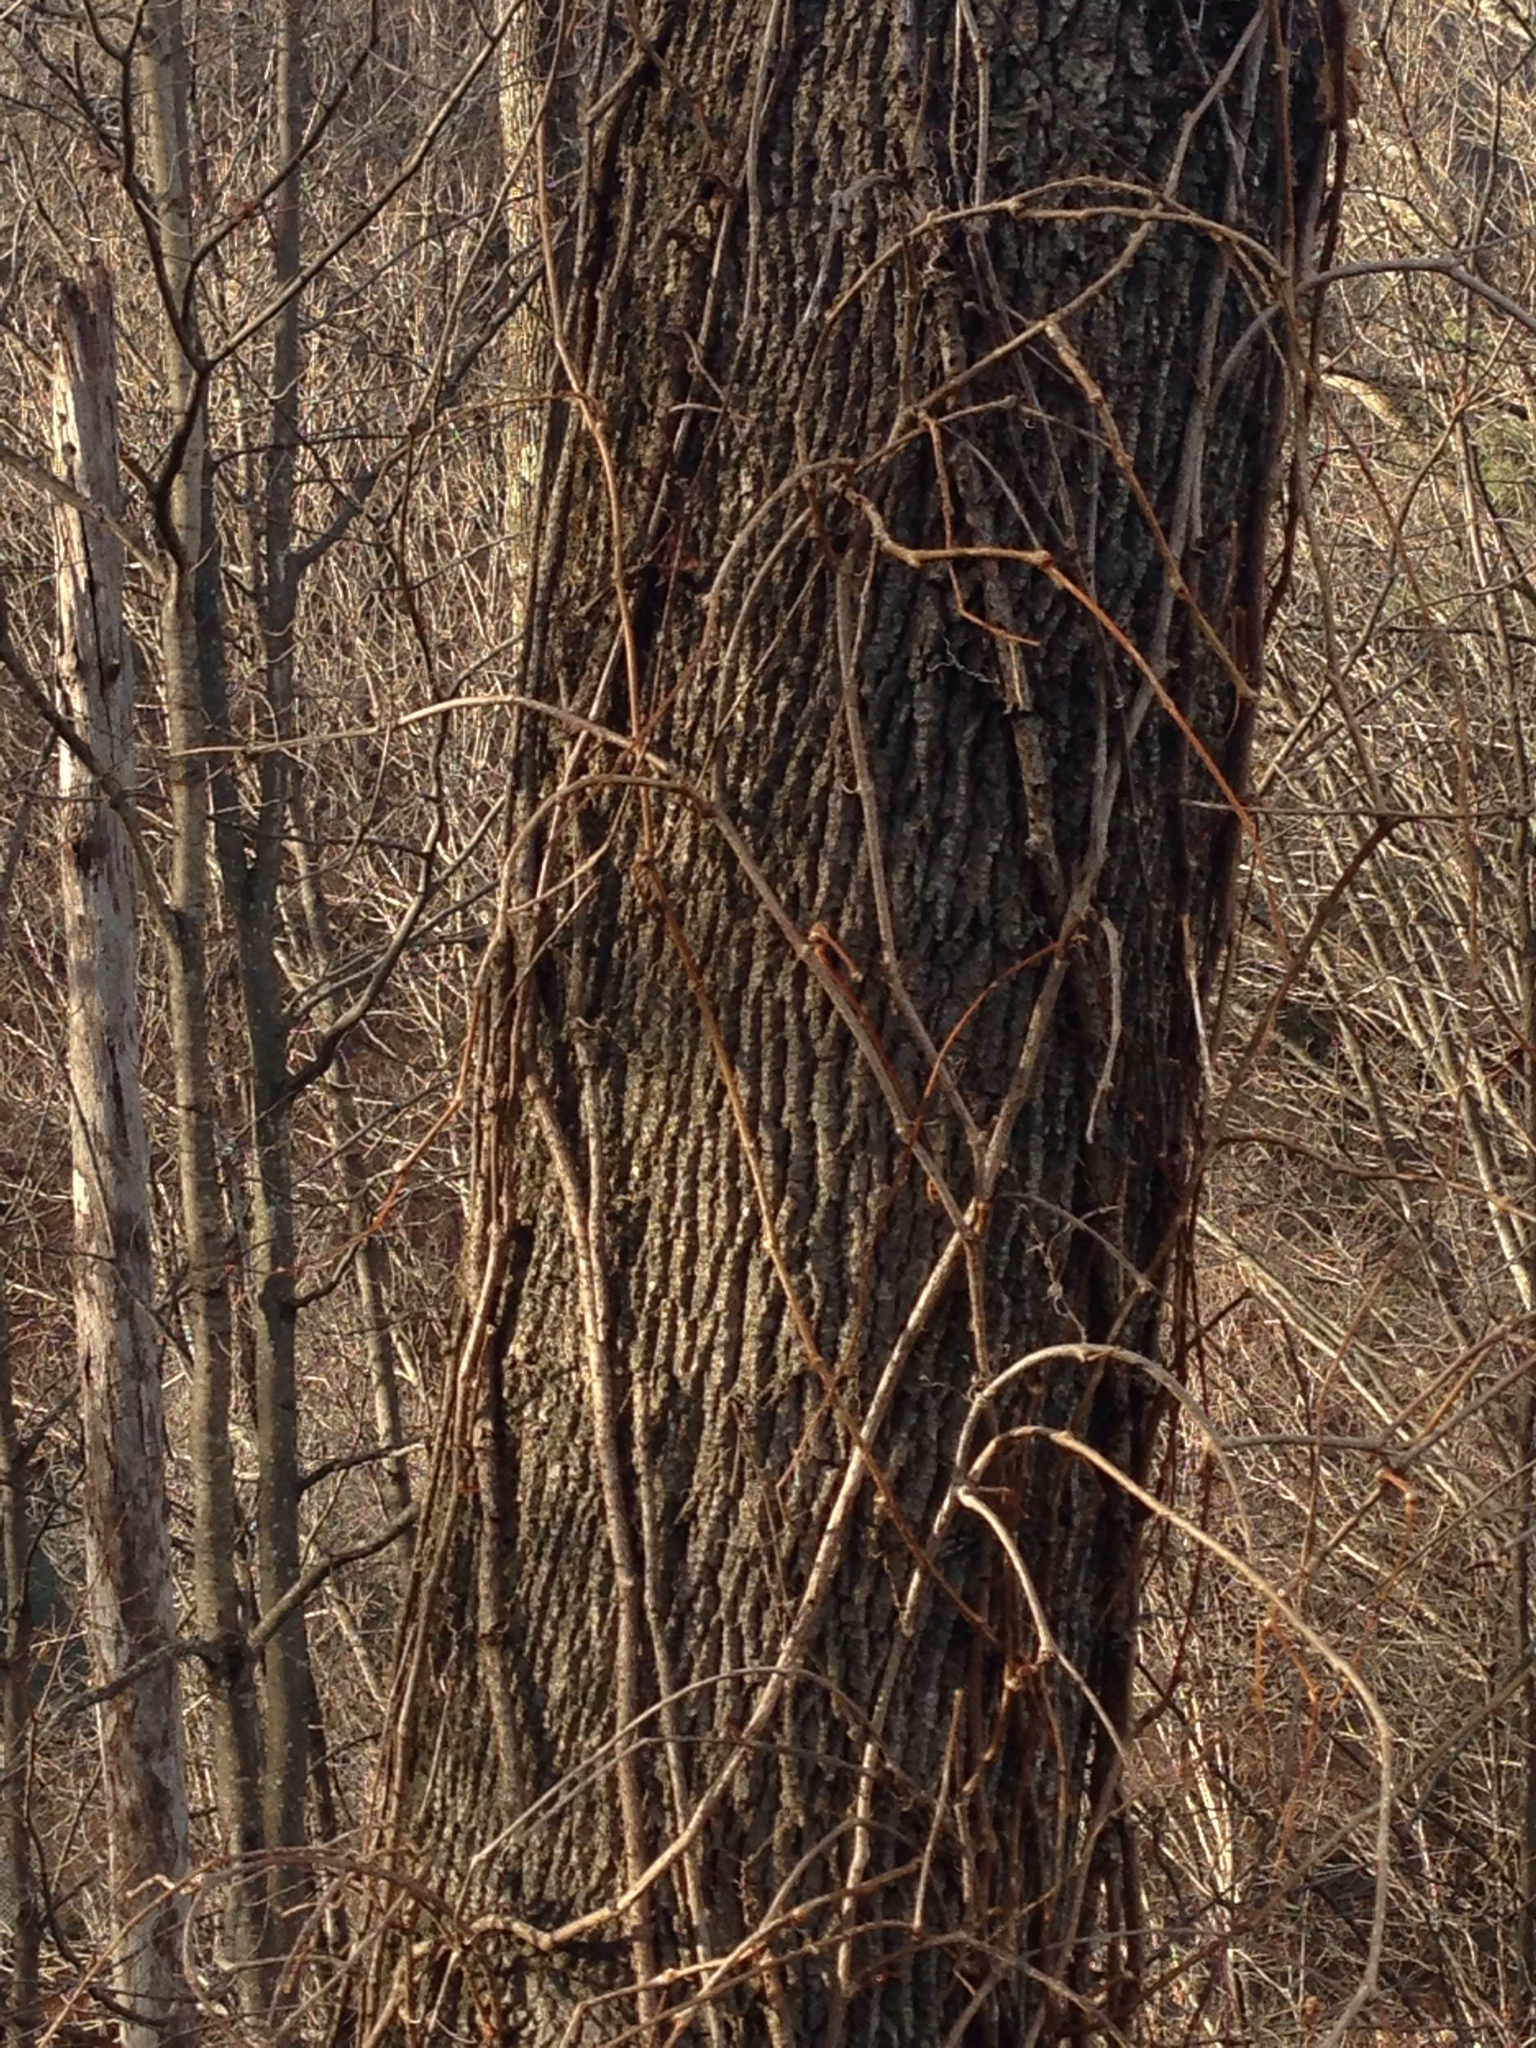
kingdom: Plantae
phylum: Tracheophyta
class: Magnoliopsida
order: Lamiales
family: Oleaceae
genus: Fraxinus
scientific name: Fraxinus americana
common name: White ash
